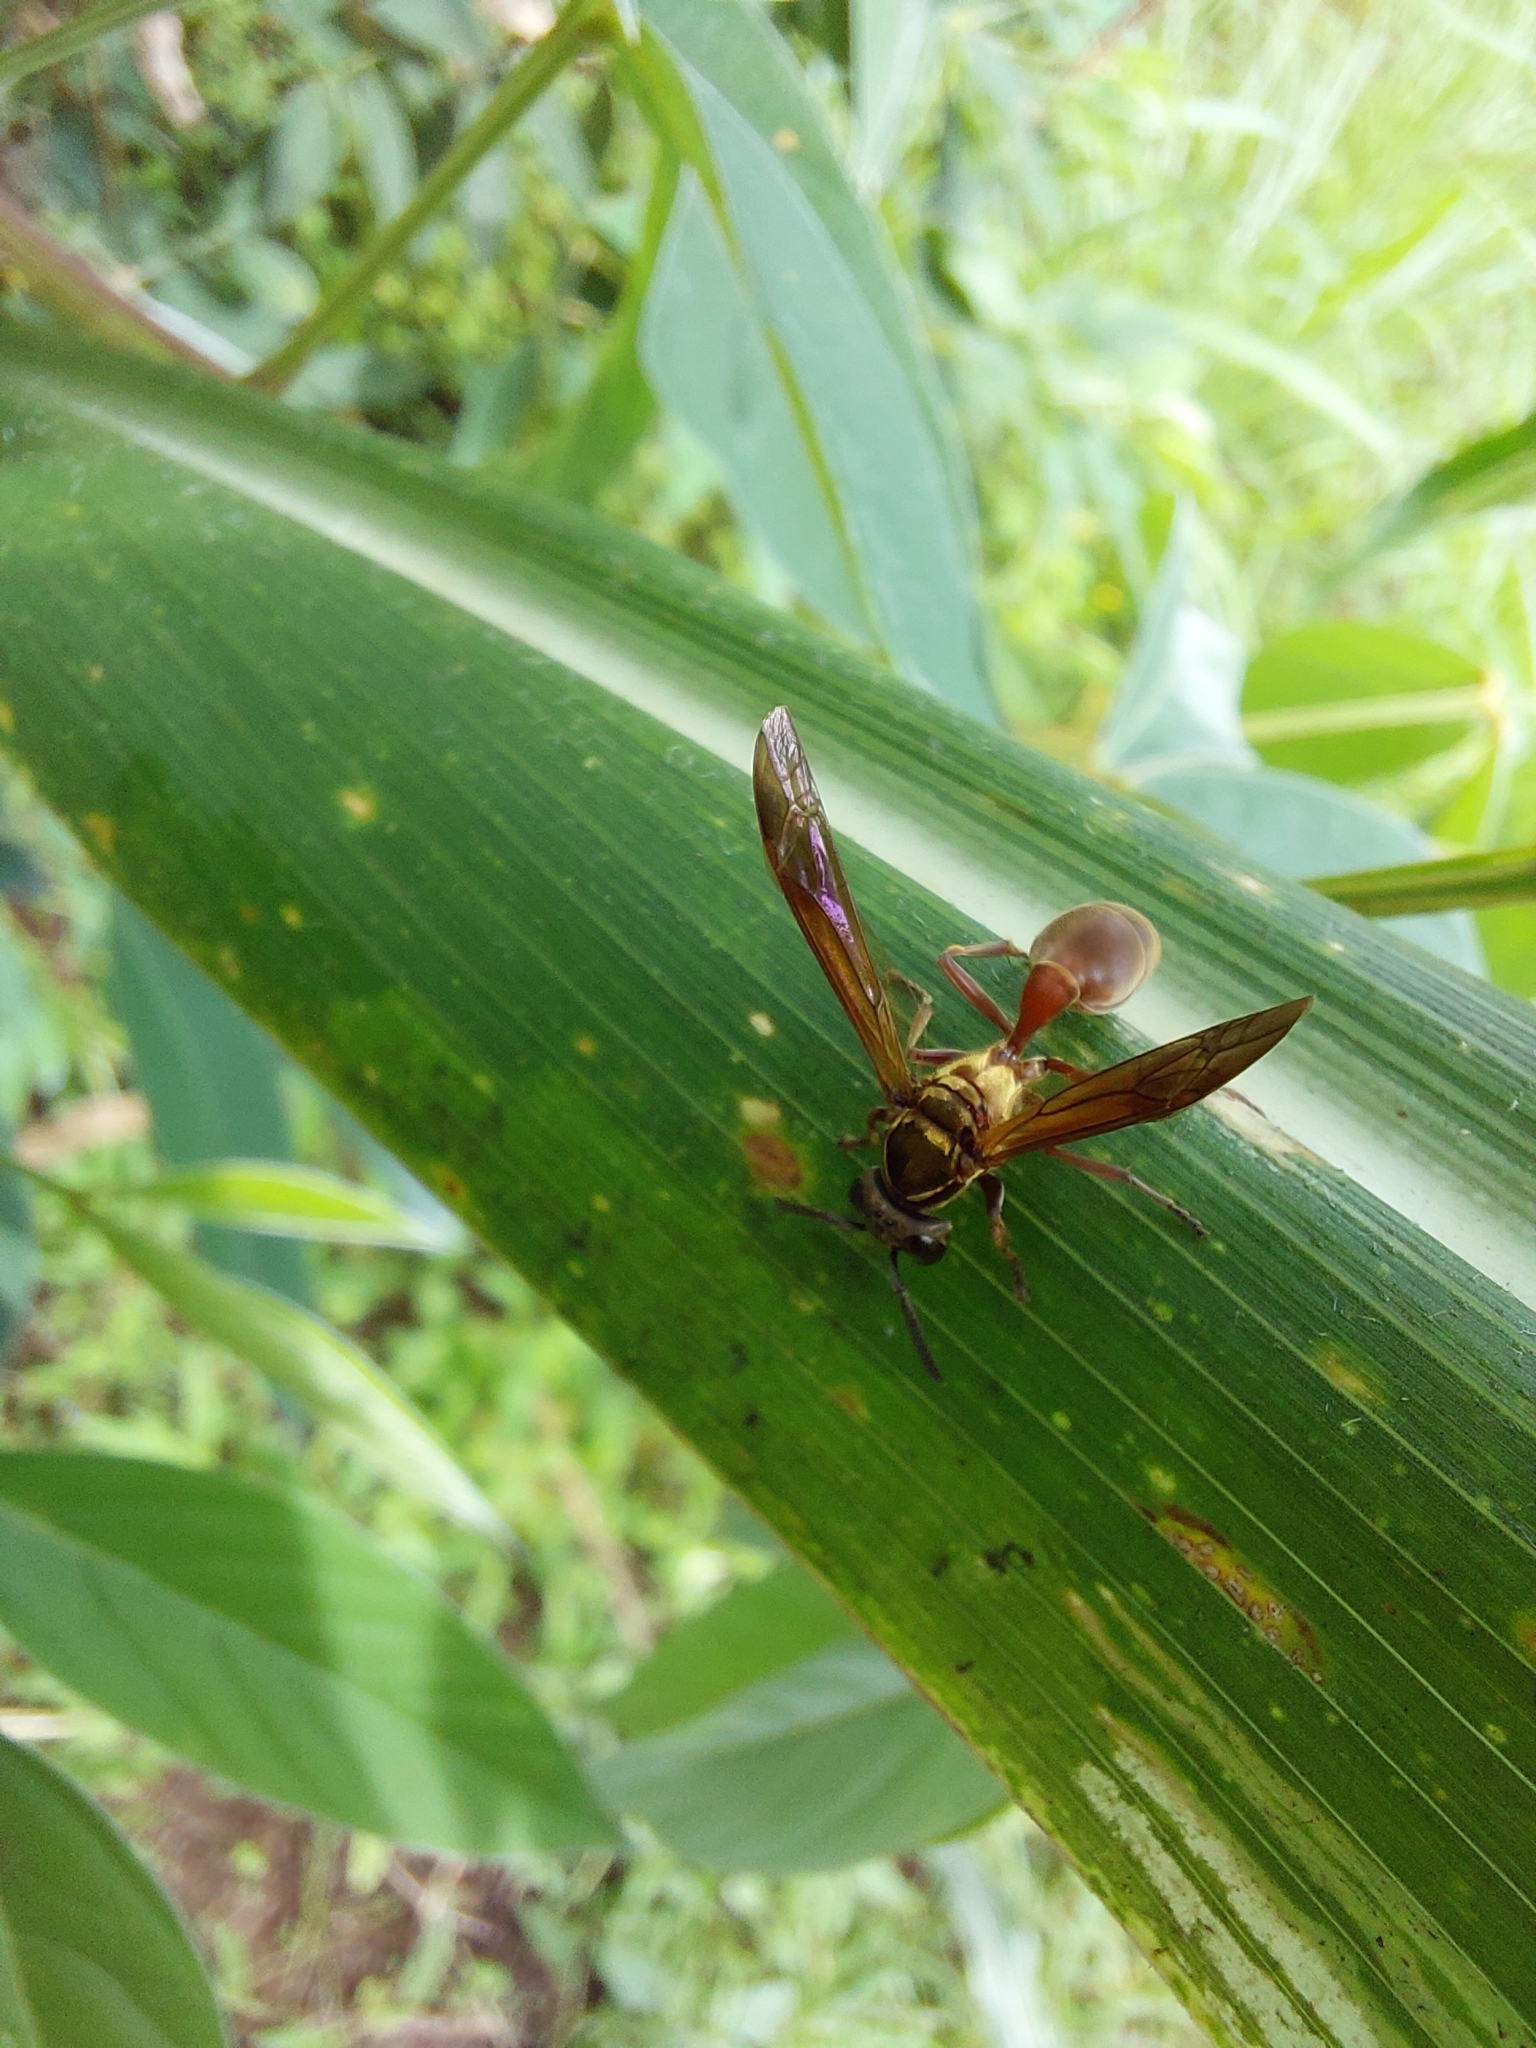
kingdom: Animalia
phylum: Arthropoda
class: Insecta
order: Hymenoptera
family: Eumenidae
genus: Polybia
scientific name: Polybia chrysothorax
